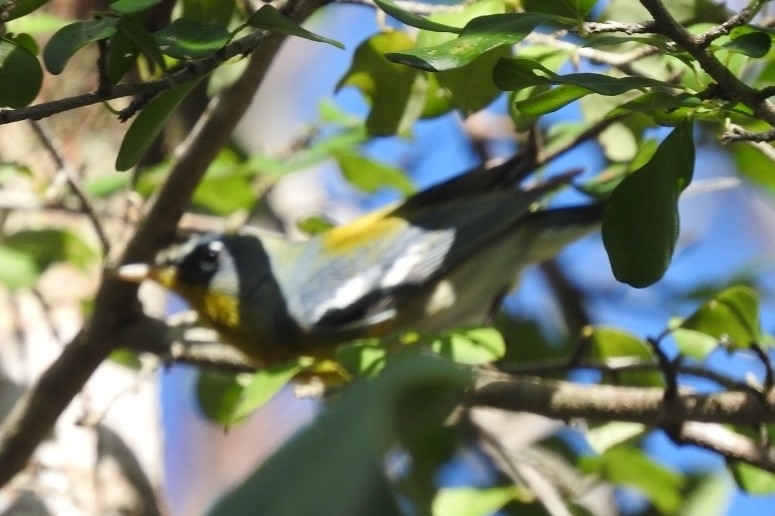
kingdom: Animalia
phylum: Chordata
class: Aves
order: Passeriformes
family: Parulidae
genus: Setophaga
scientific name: Setophaga americana
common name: Northern parula
